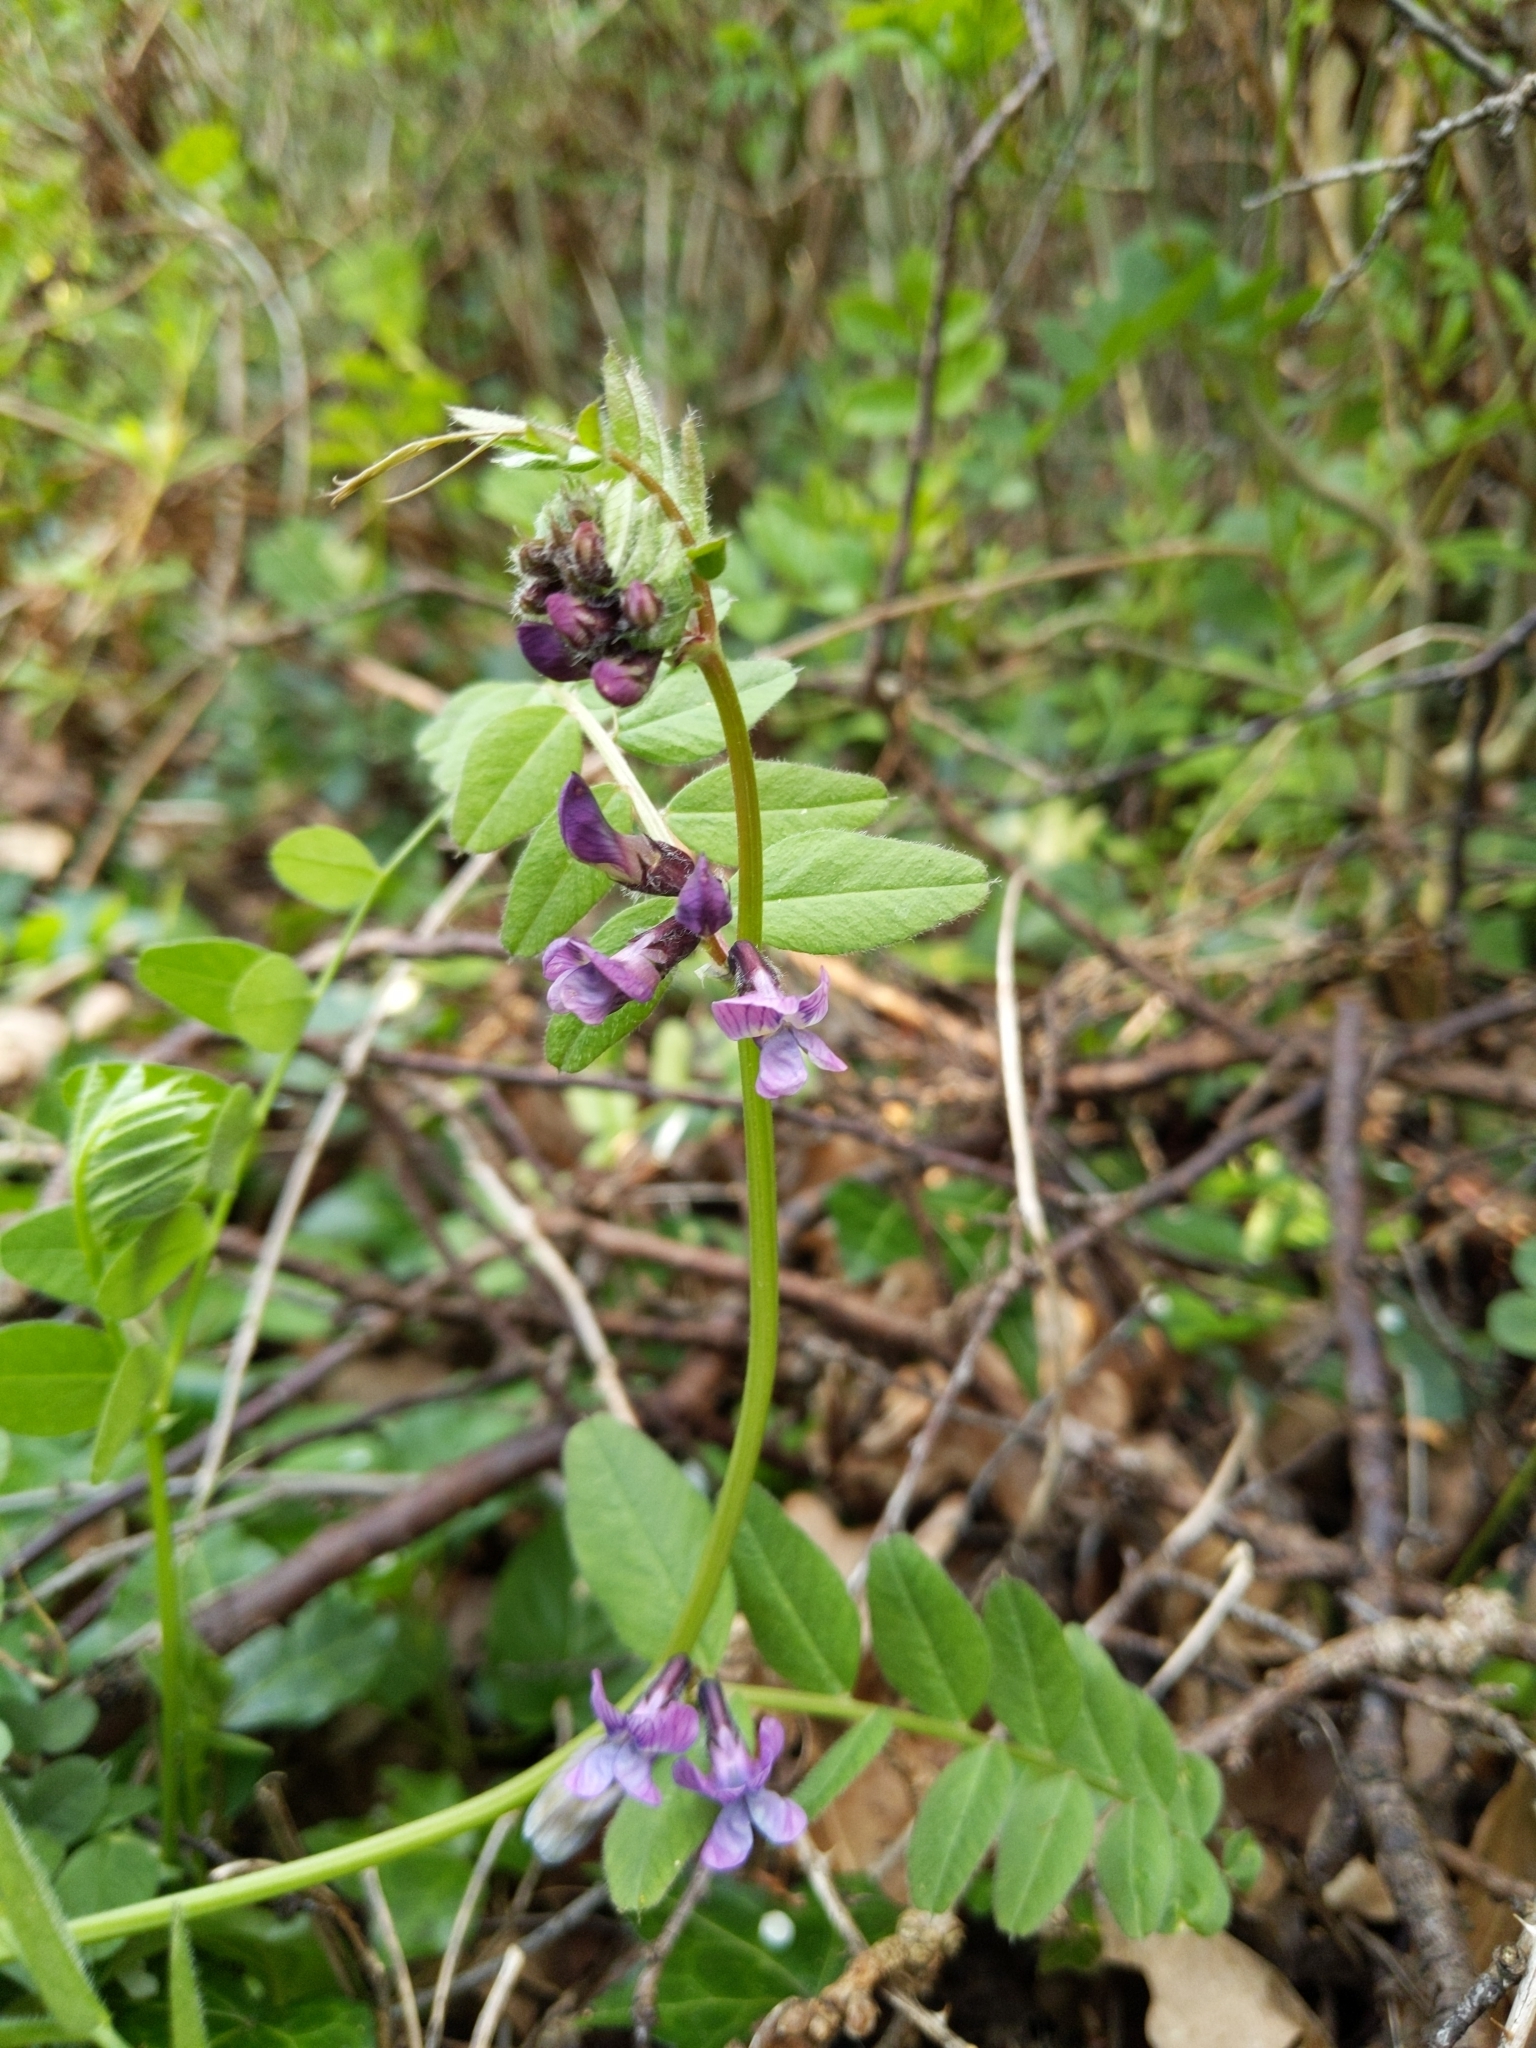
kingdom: Plantae
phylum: Tracheophyta
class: Magnoliopsida
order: Fabales
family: Fabaceae
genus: Vicia
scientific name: Vicia sepium
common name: Bush vetch
